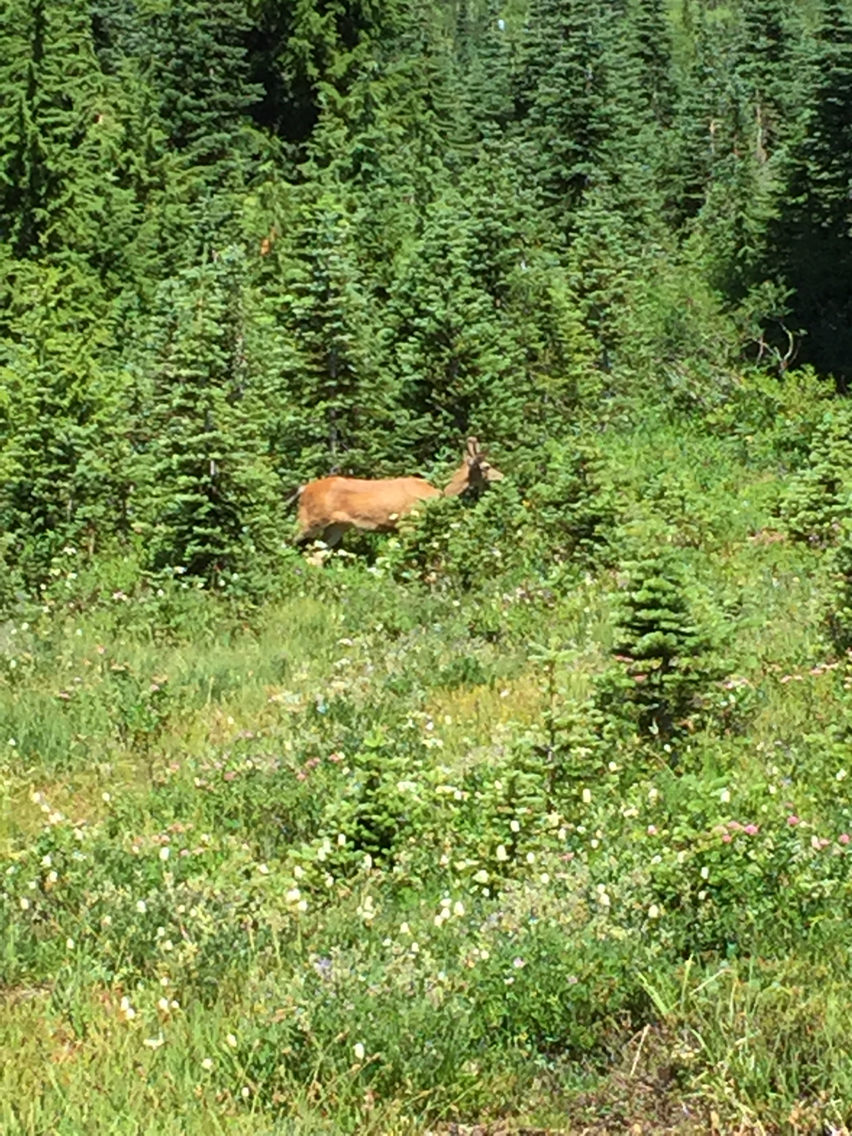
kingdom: Animalia
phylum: Chordata
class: Mammalia
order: Artiodactyla
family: Cervidae
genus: Odocoileus
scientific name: Odocoileus hemionus
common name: Mule deer
